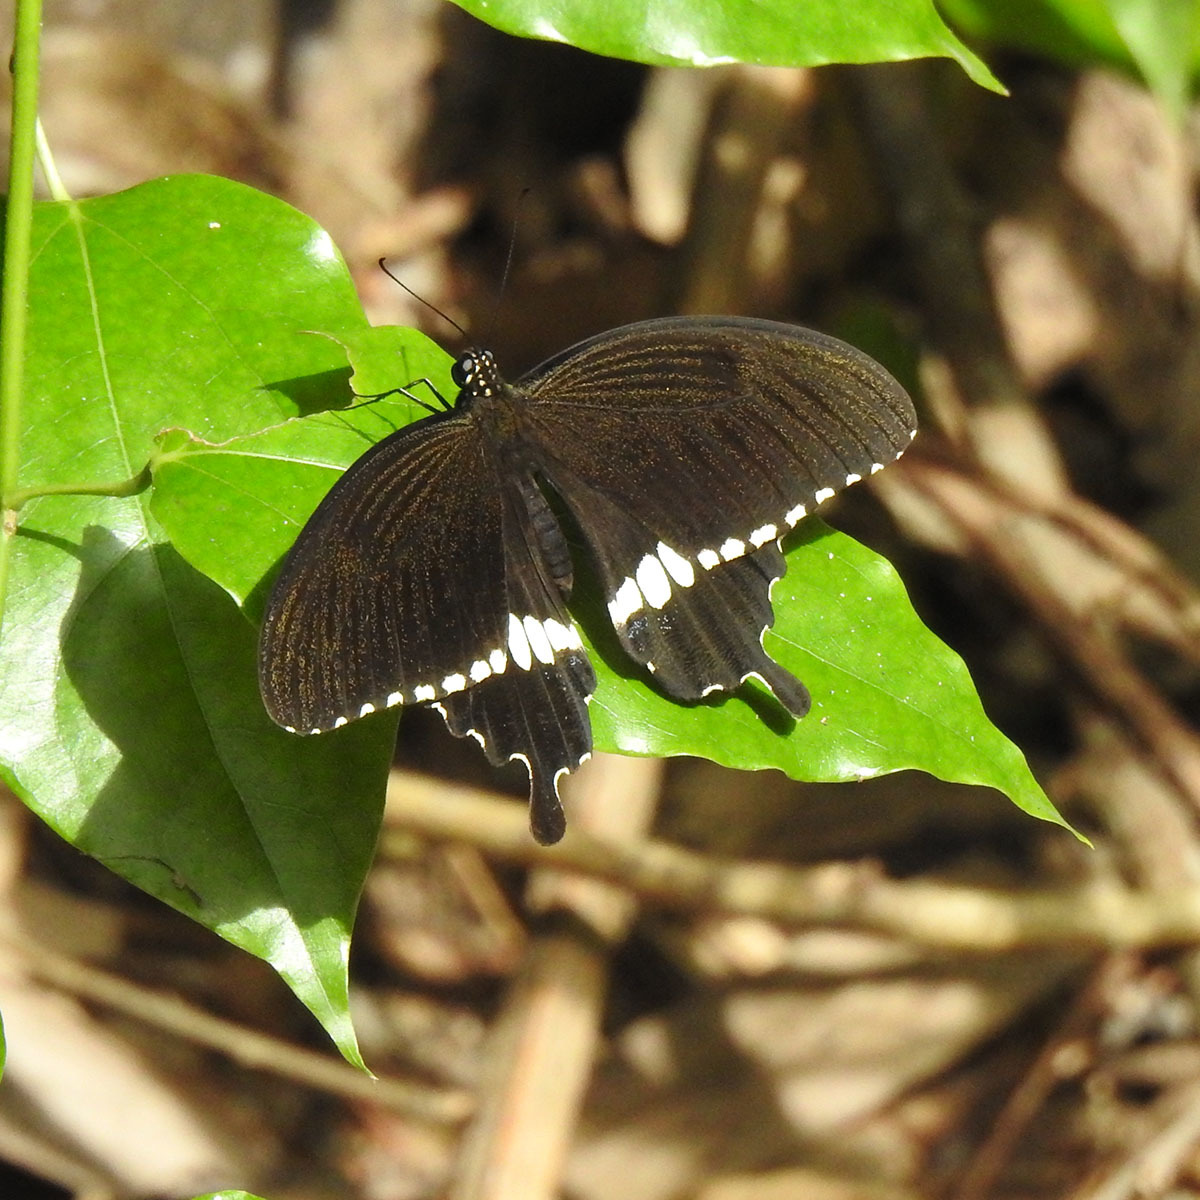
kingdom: Animalia
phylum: Arthropoda
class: Insecta
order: Lepidoptera
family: Papilionidae
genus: Papilio
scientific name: Papilio polytes
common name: Common mormon
